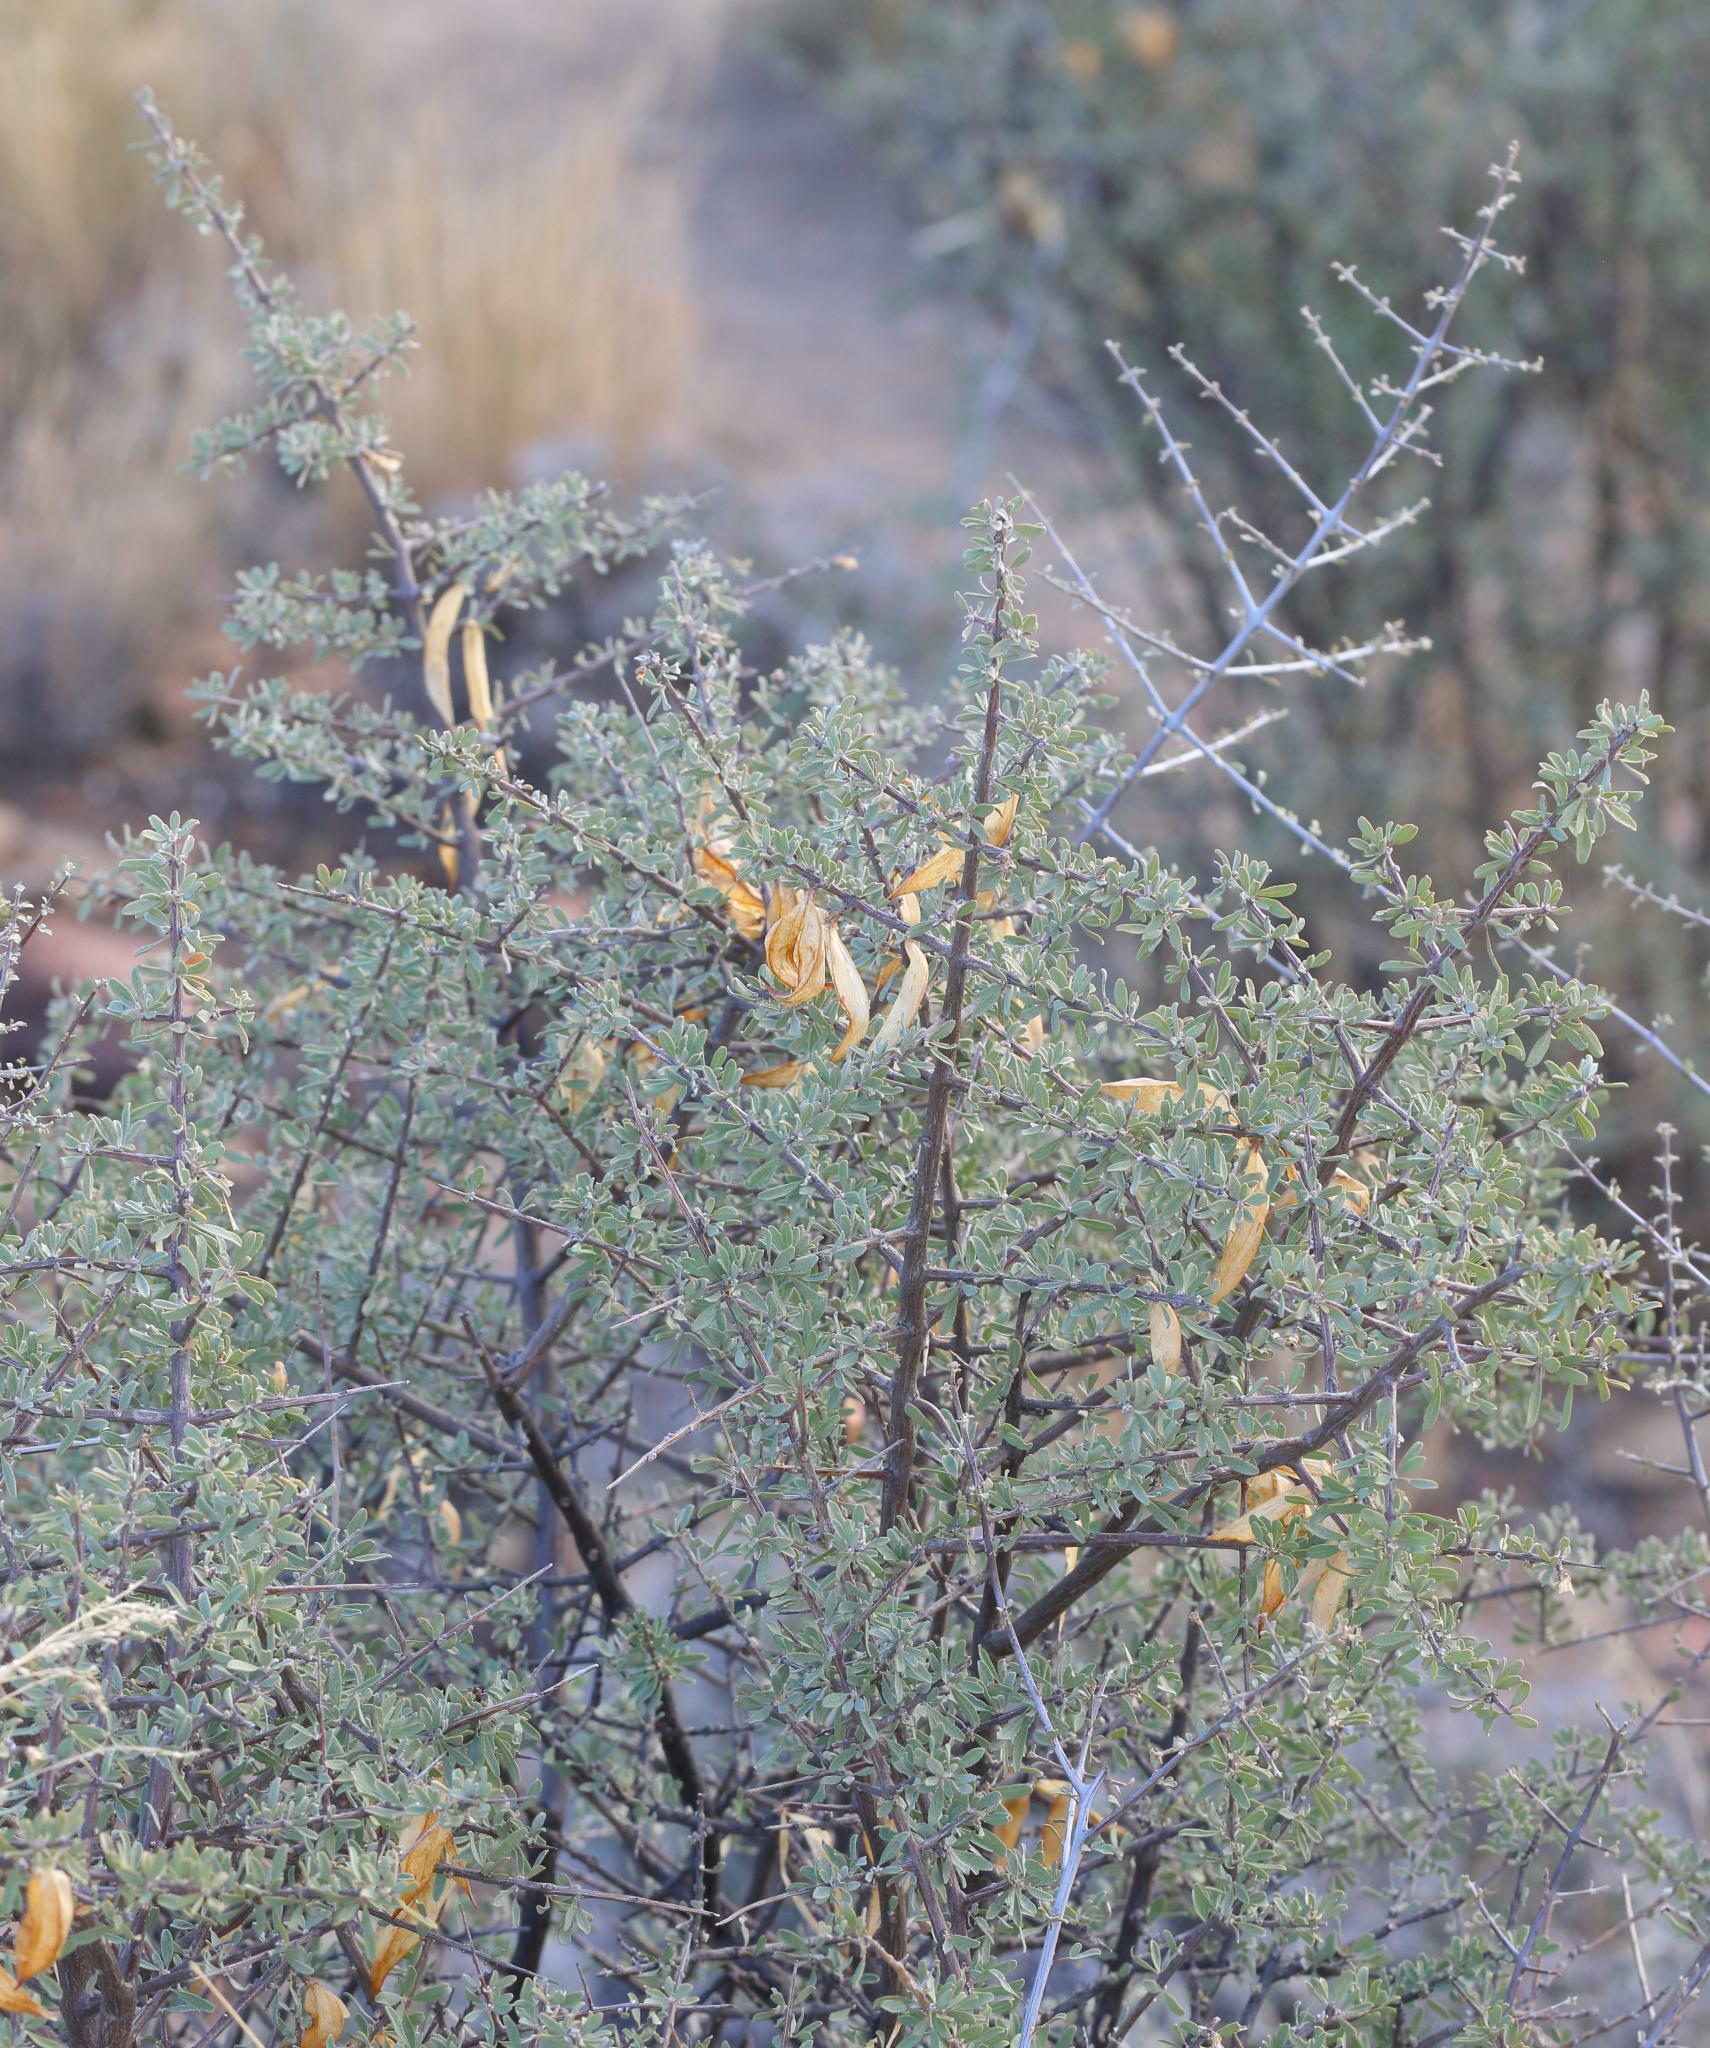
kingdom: Plantae
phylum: Tracheophyta
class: Magnoliopsida
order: Lamiales
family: Bignoniaceae
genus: Rhigozum
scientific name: Rhigozum obovatum
